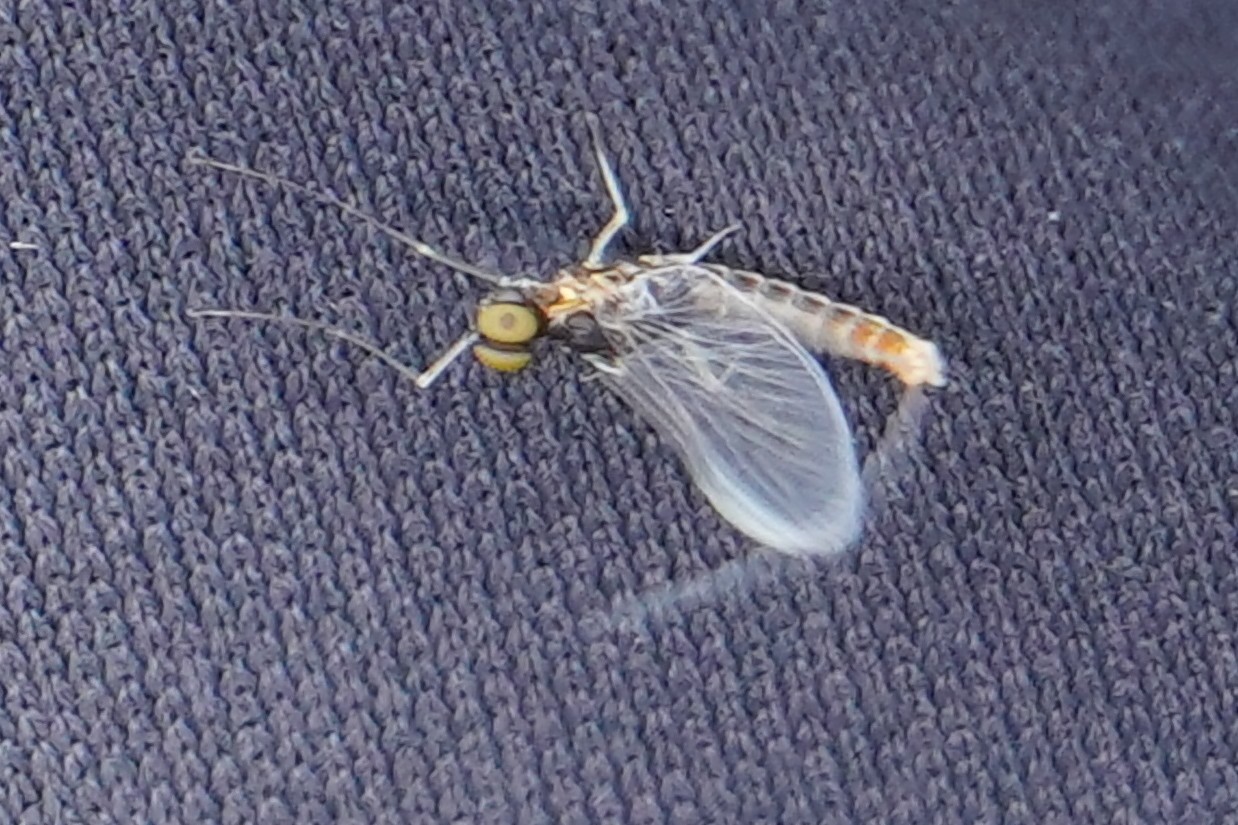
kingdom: Animalia
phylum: Arthropoda
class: Insecta
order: Ephemeroptera
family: Baetidae
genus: Cloeon
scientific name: Cloeon simile
